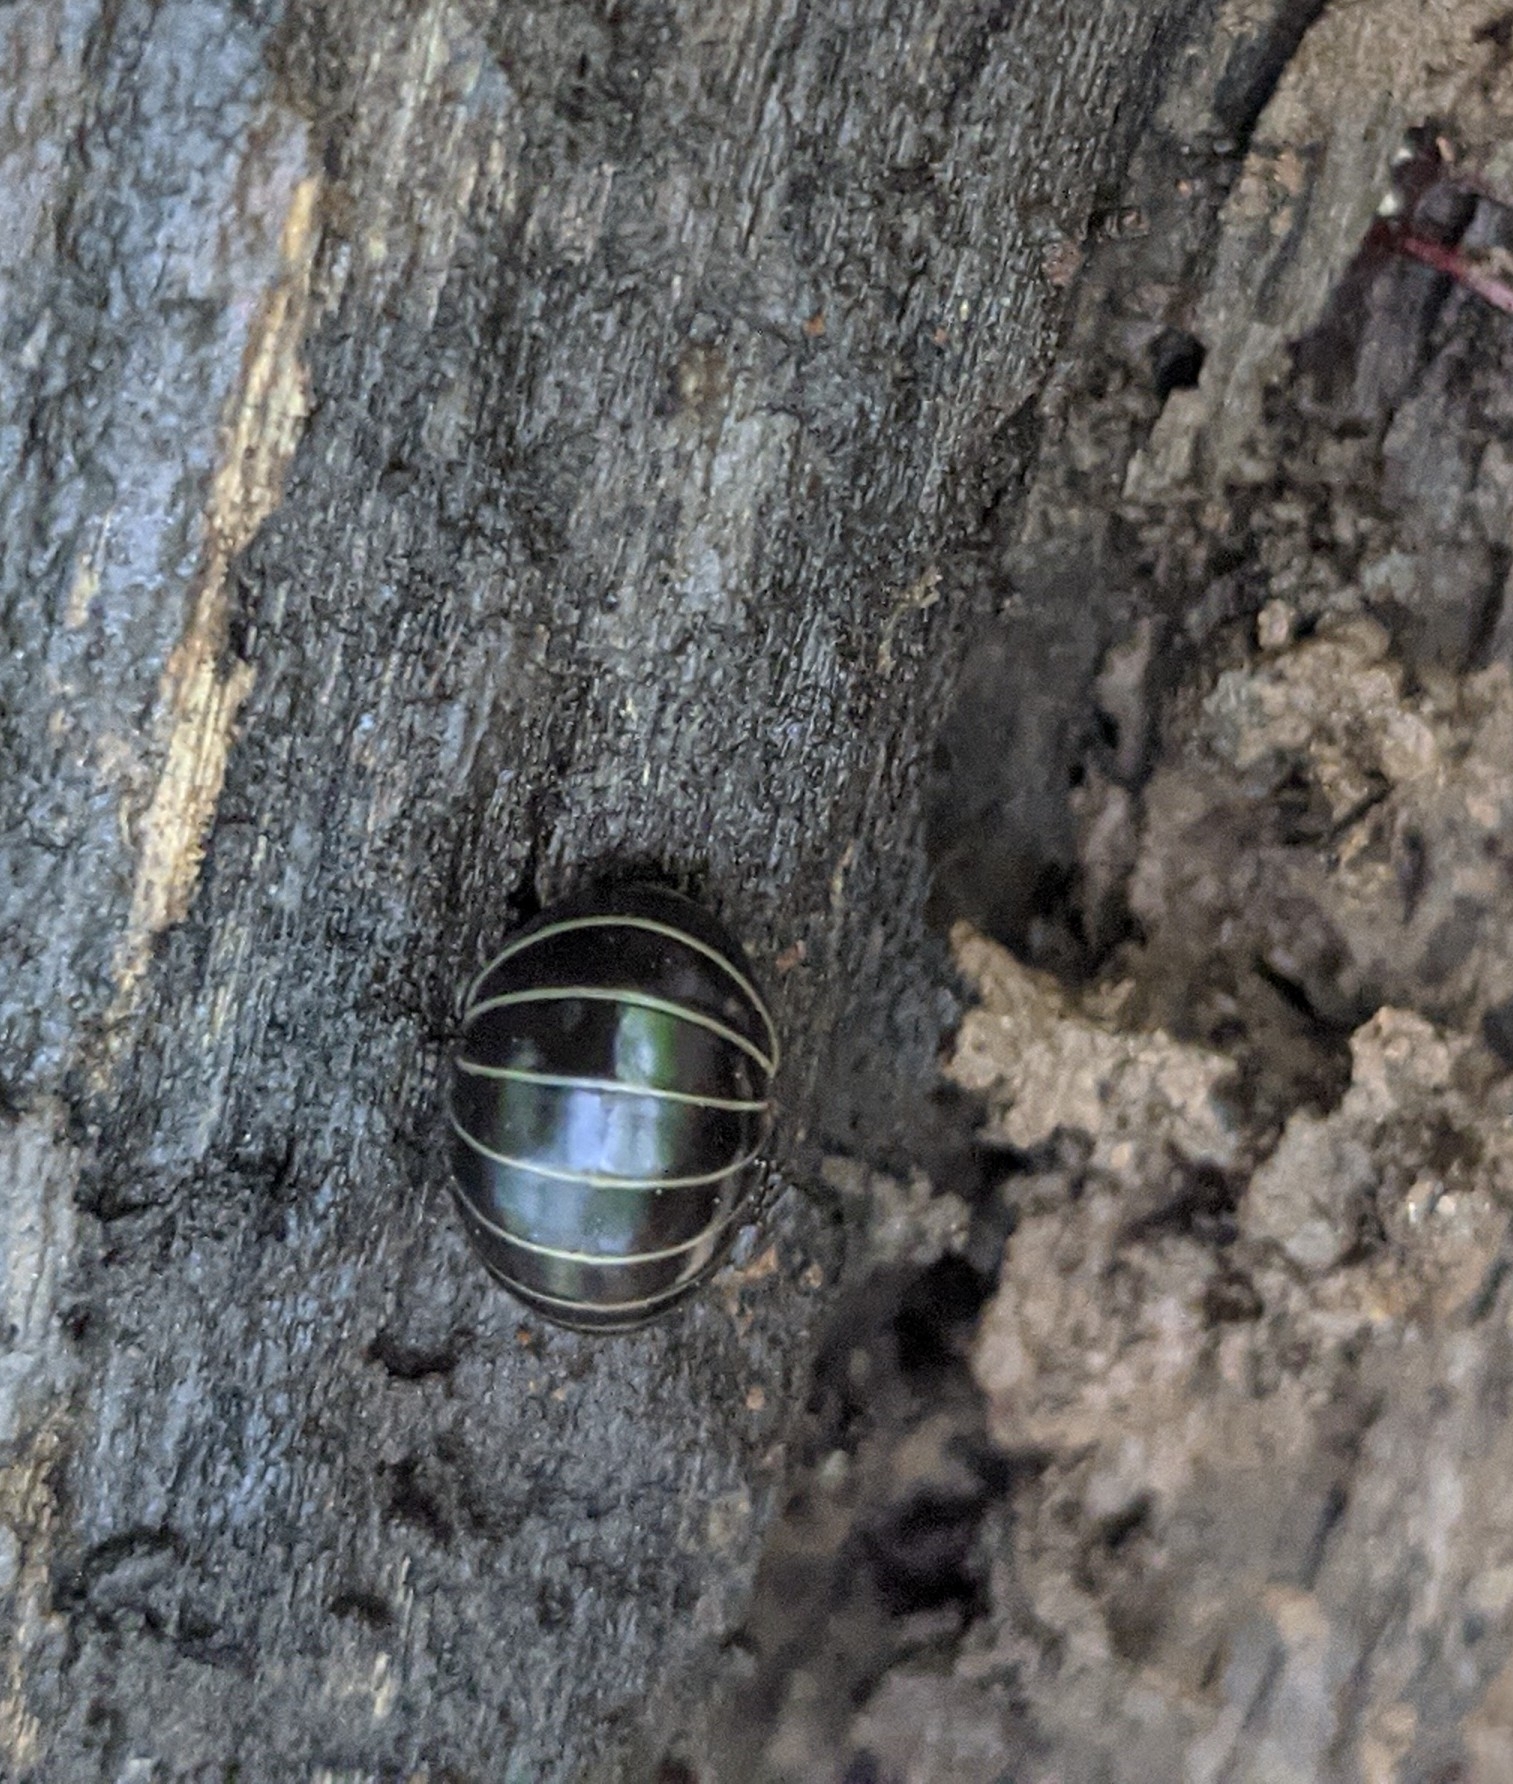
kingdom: Animalia
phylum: Arthropoda
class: Diplopoda
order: Glomerida
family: Glomeridae
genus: Glomeris
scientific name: Glomeris marginata
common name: Bordered pill millipede
